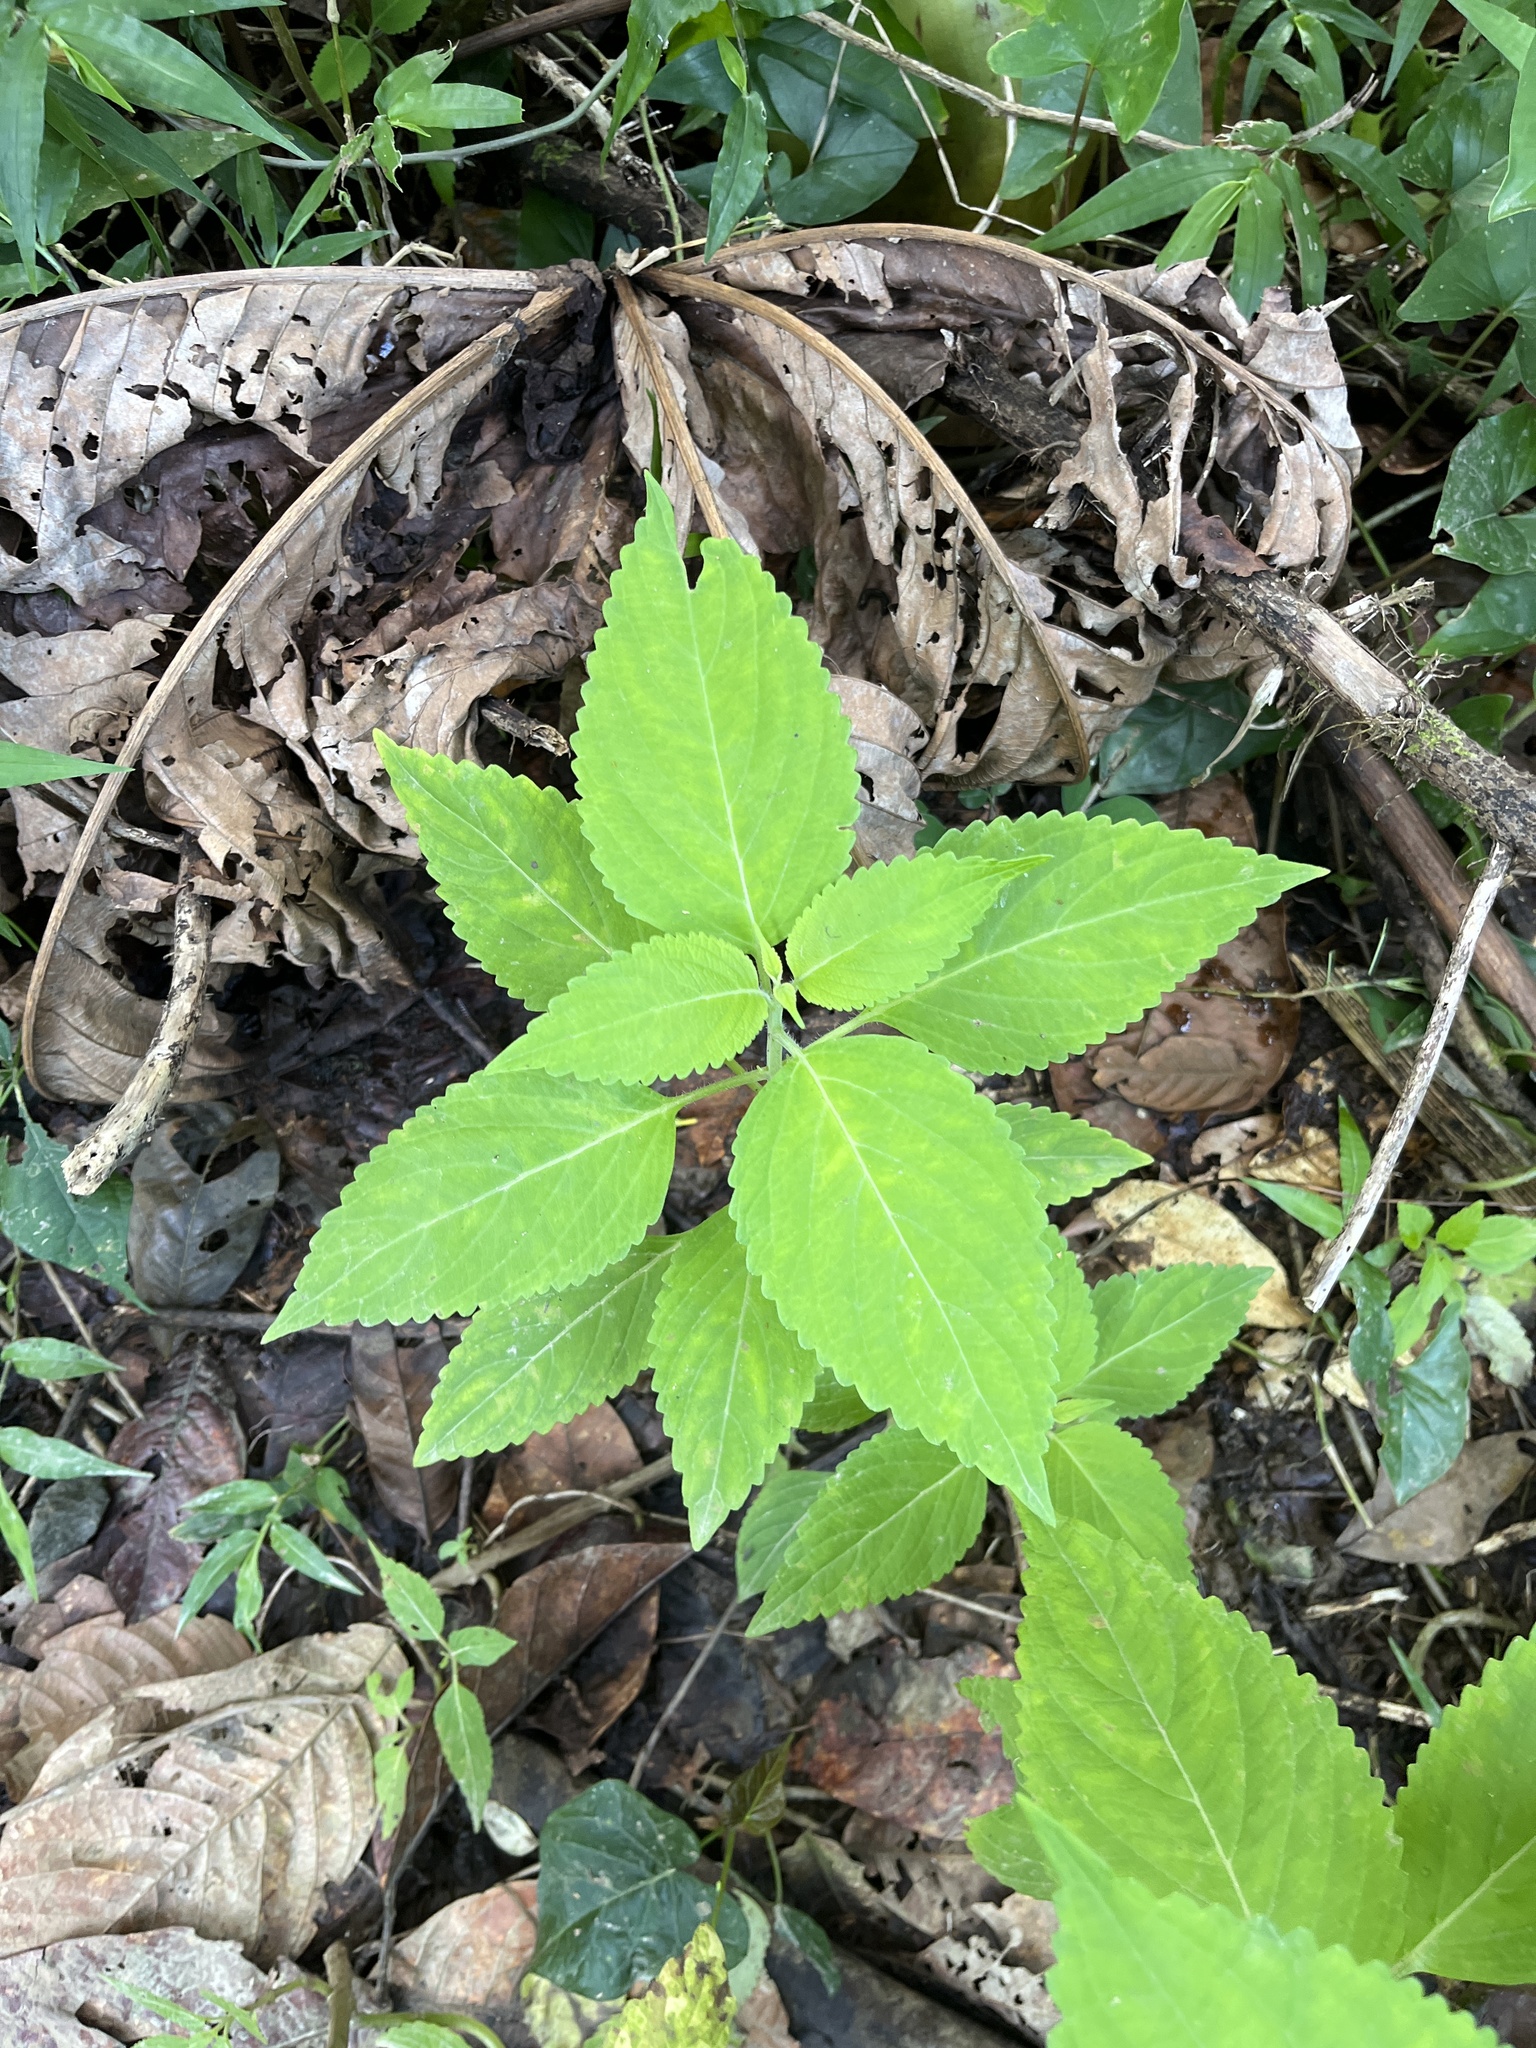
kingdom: Plantae
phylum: Tracheophyta
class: Magnoliopsida
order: Lamiales
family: Lamiaceae
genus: Coleus
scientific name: Coleus scutellarioides
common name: Coleus
